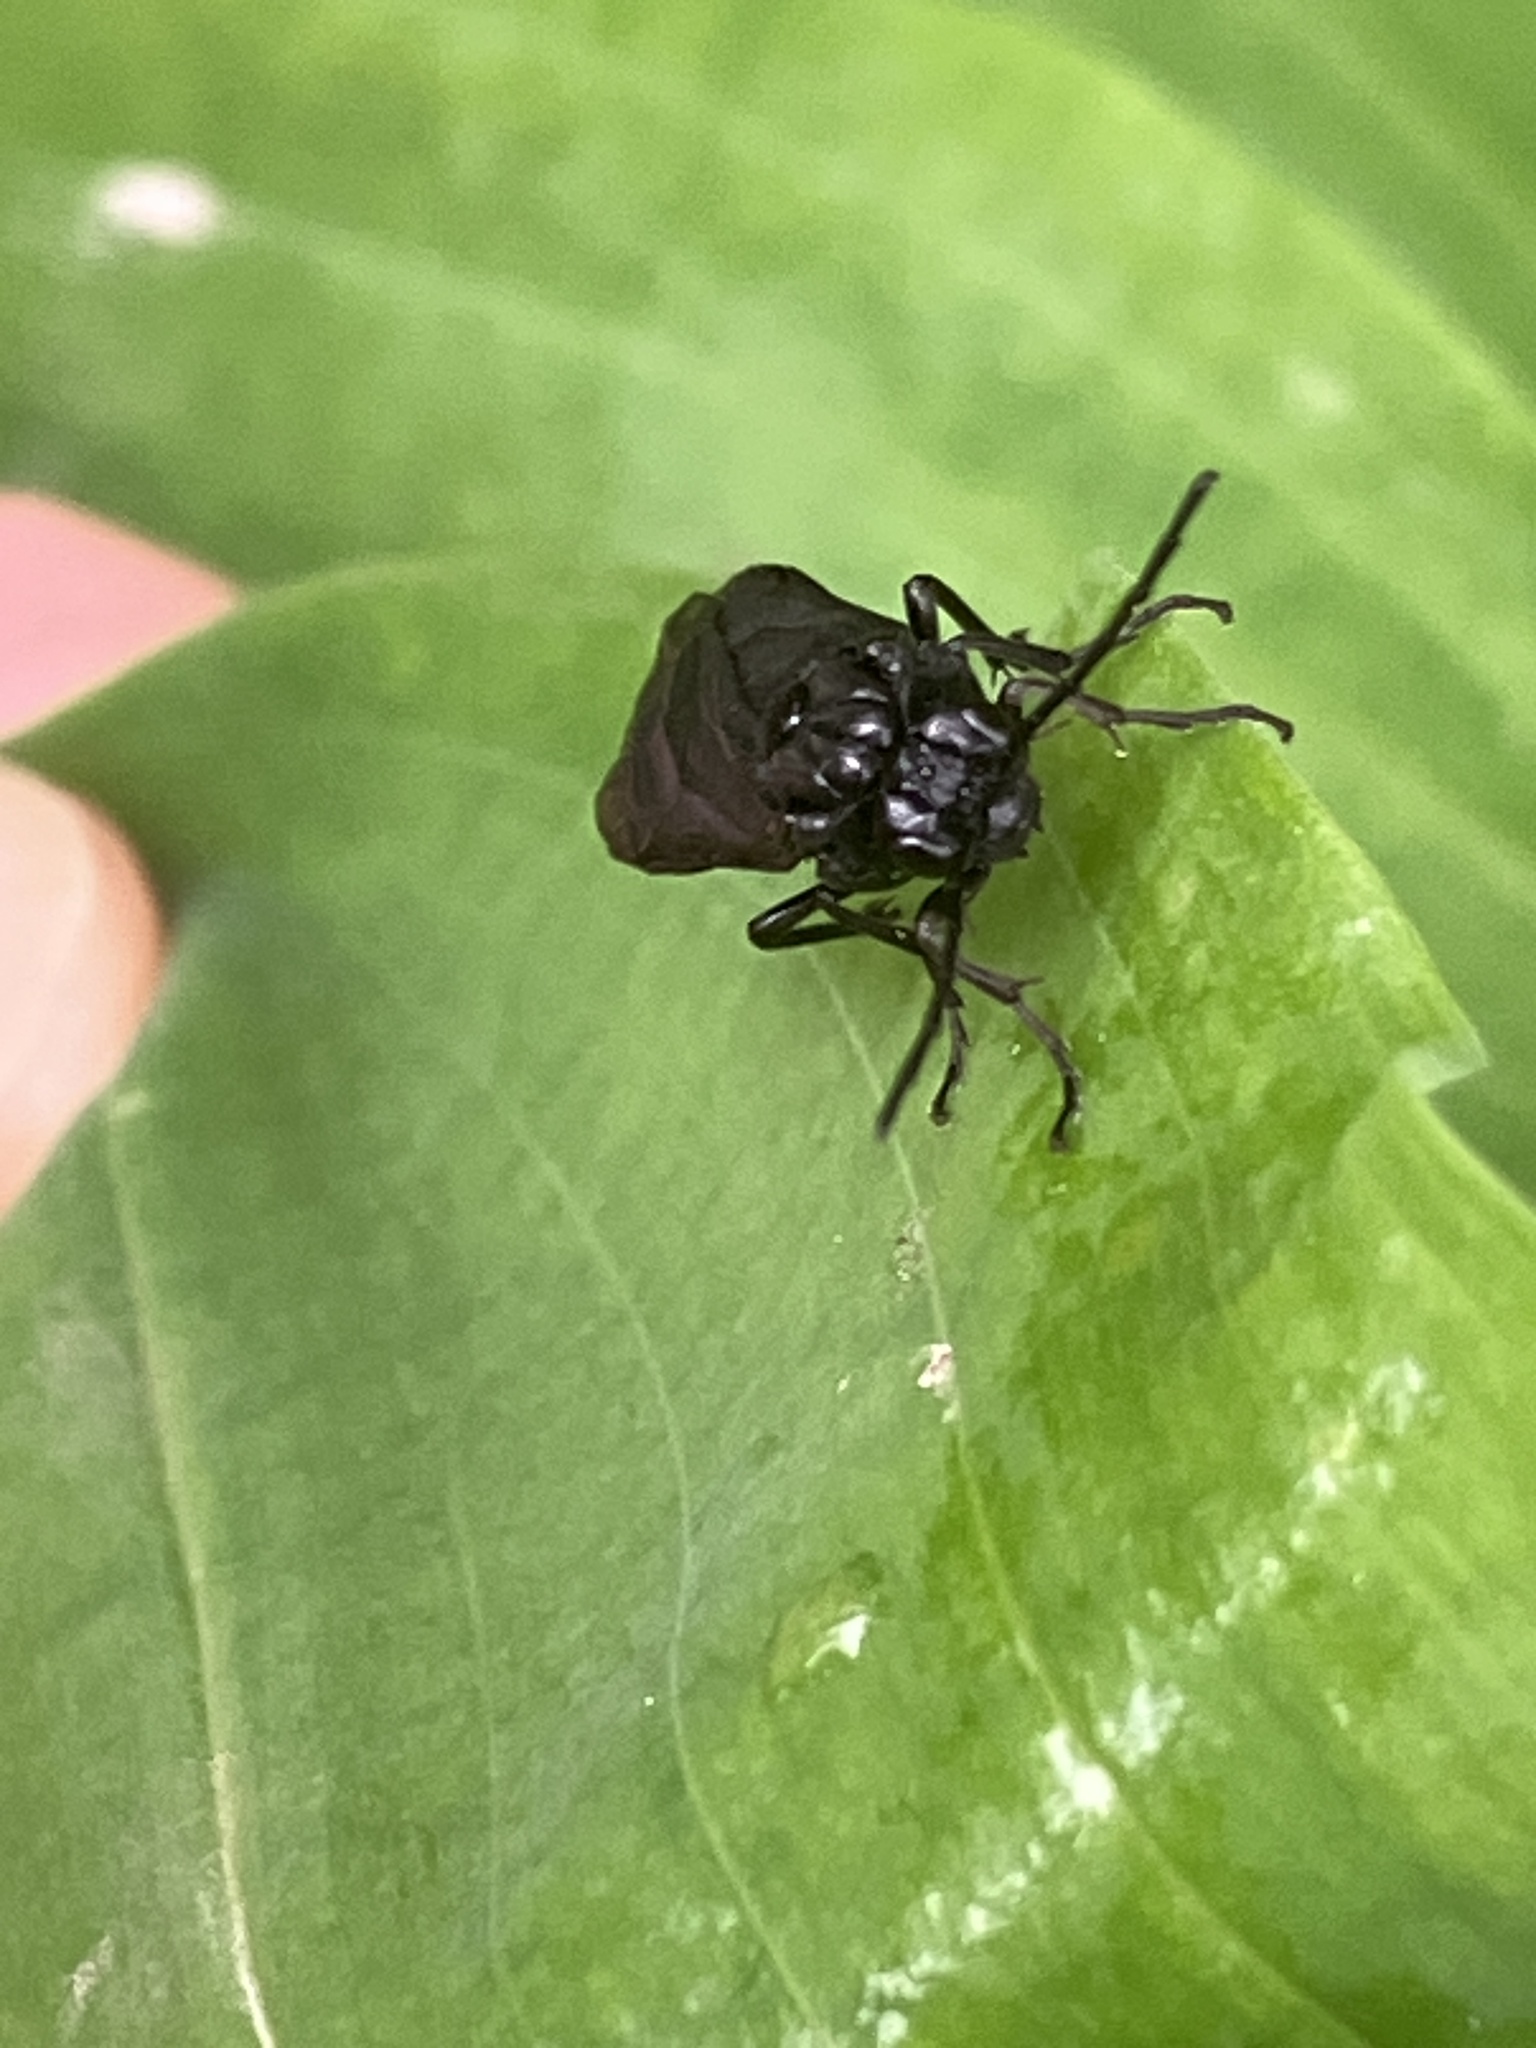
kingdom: Animalia
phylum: Arthropoda
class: Insecta
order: Hymenoptera
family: Tenthredinidae
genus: Phymatocera
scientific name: Phymatocera aterrima
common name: Solomon's-seal sawfly
